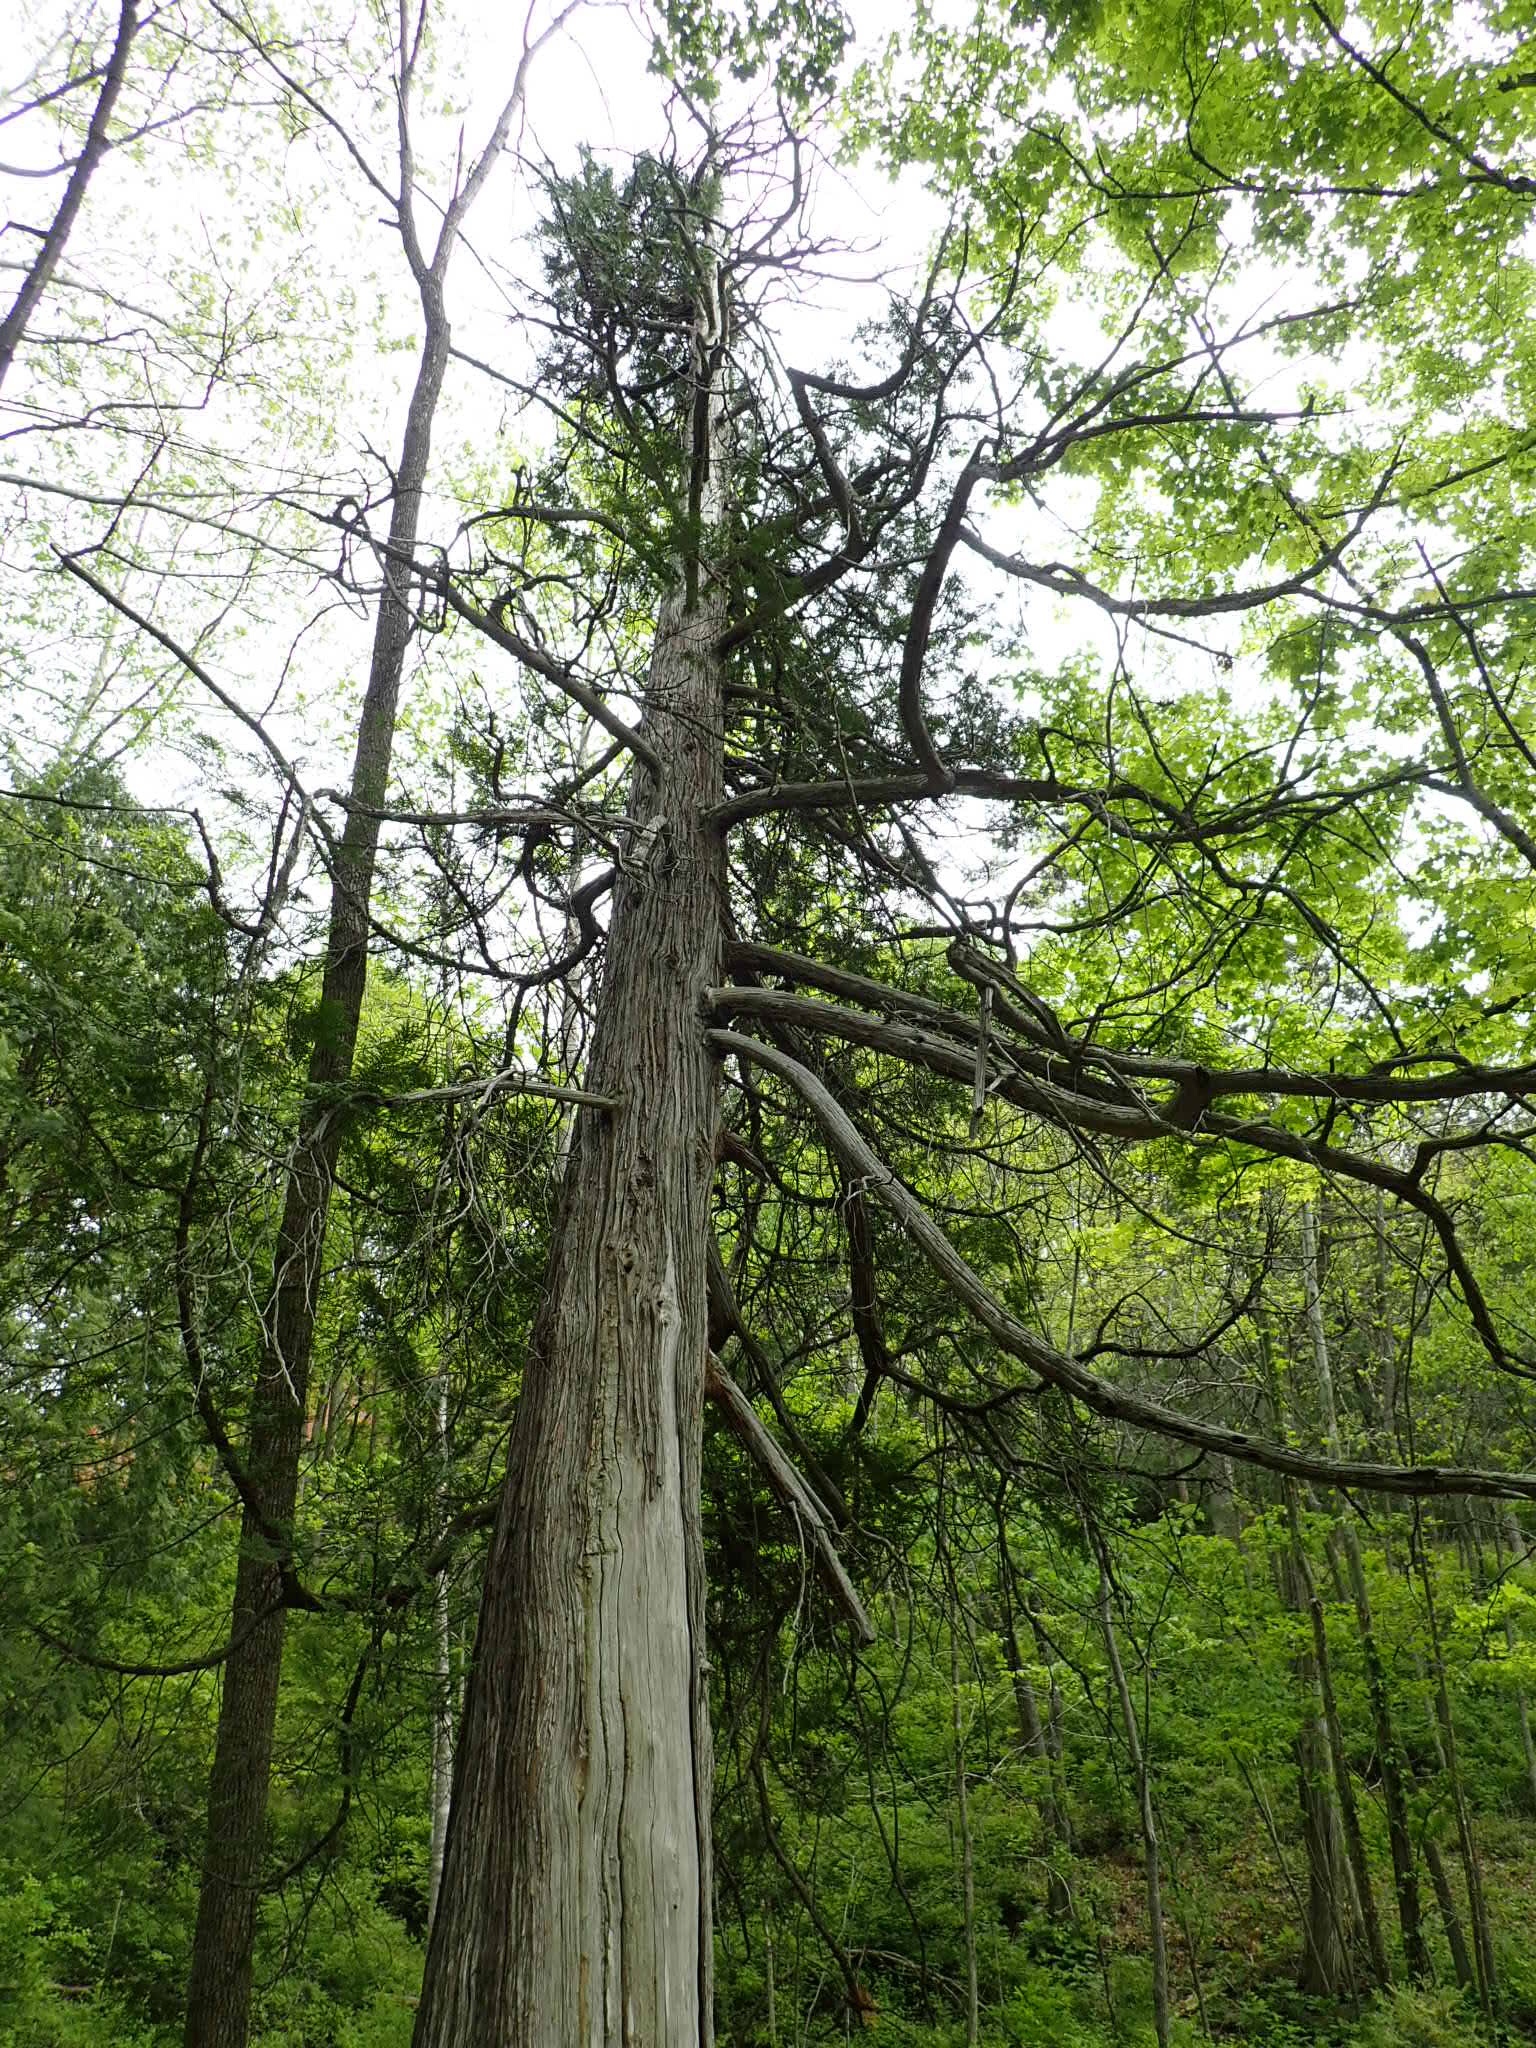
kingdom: Plantae
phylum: Tracheophyta
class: Pinopsida
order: Pinales
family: Cupressaceae
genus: Thuja
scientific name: Thuja occidentalis
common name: Northern white-cedar
